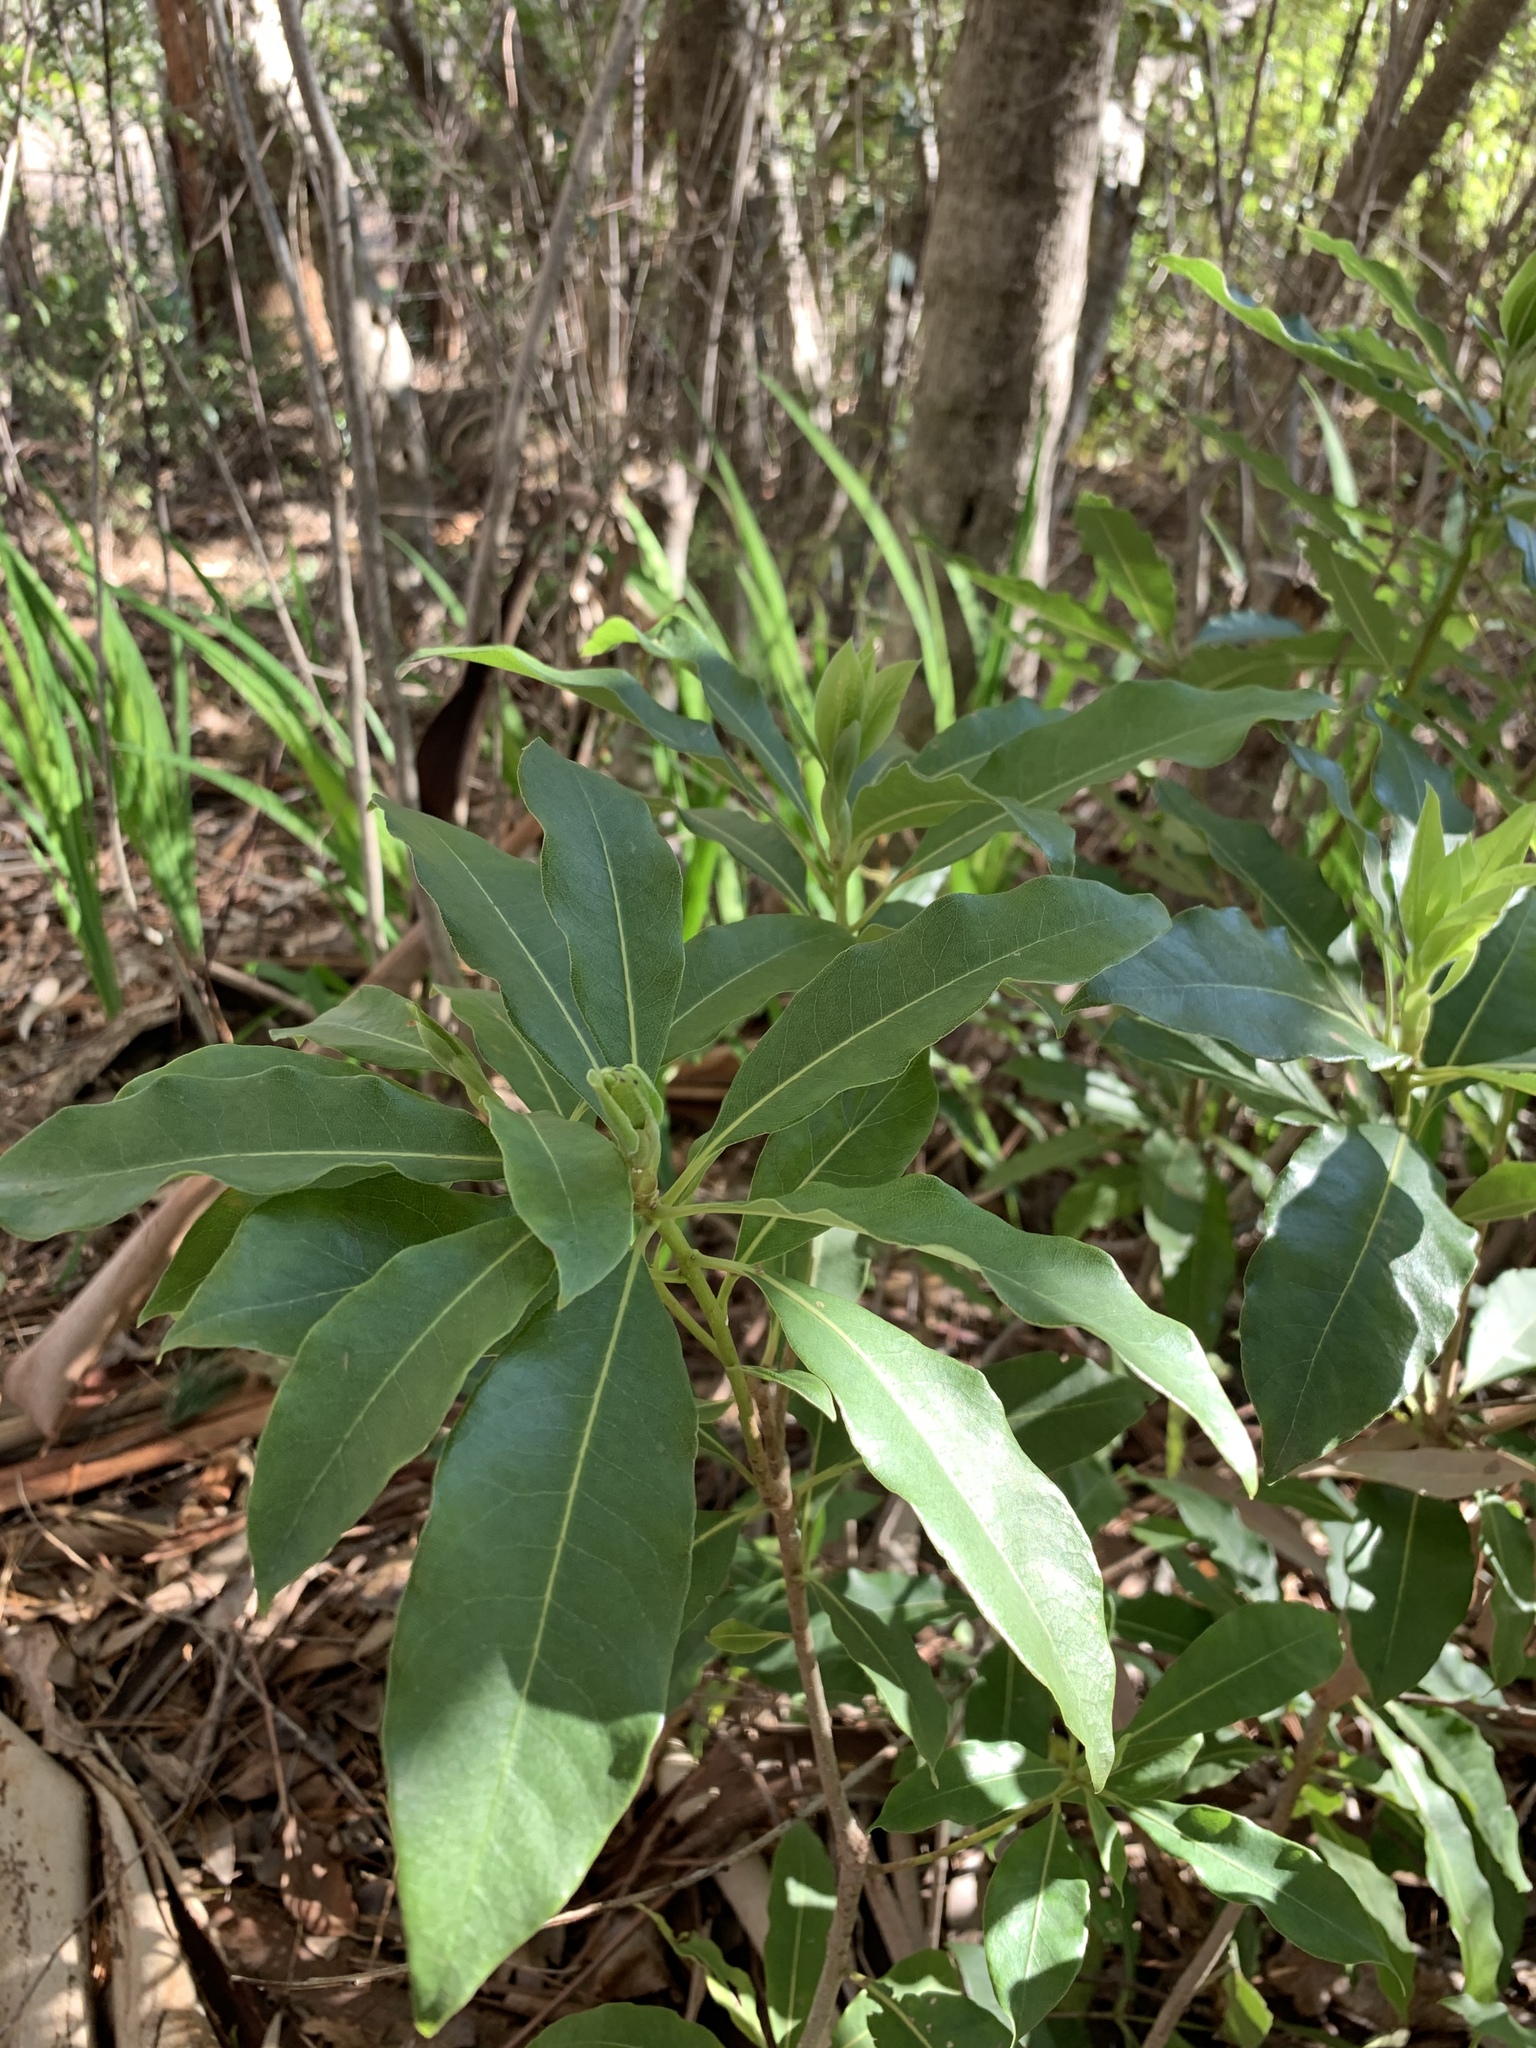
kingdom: Plantae
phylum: Tracheophyta
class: Magnoliopsida
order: Apiales
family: Pittosporaceae
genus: Pittosporum
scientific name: Pittosporum undulatum
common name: Australian cheesewood
